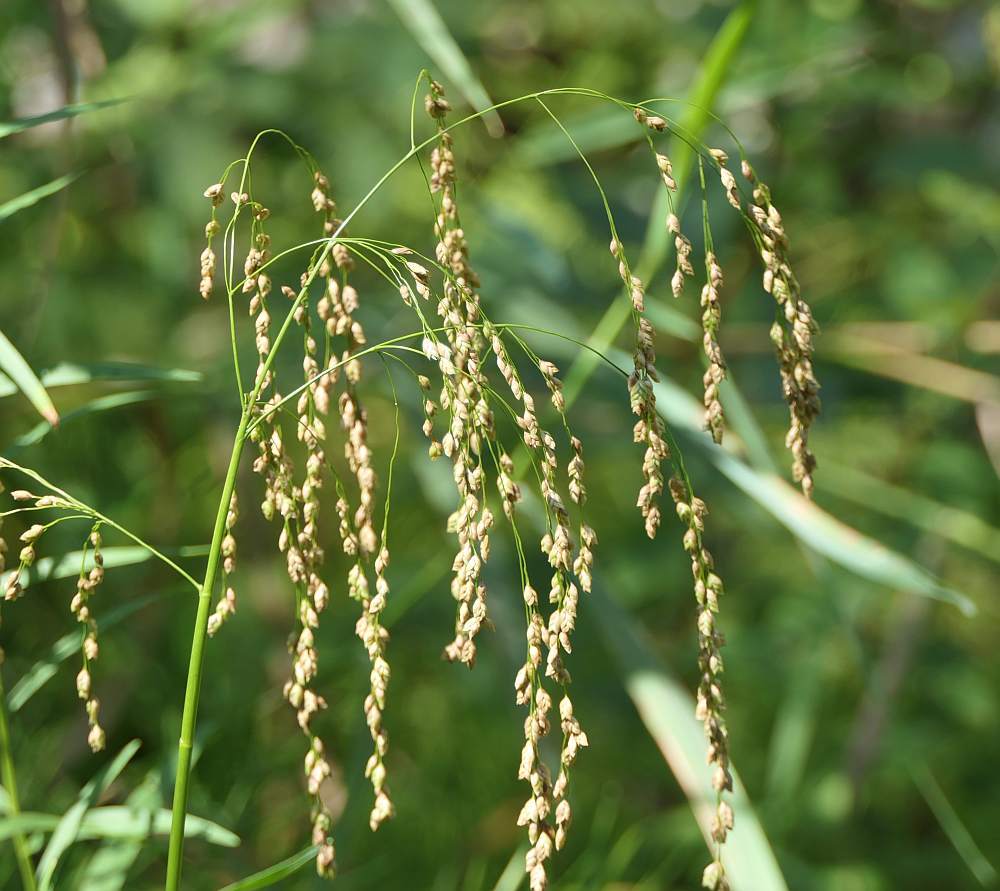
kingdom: Plantae
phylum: Tracheophyta
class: Liliopsida
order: Poales
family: Poaceae
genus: Glyceria
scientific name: Glyceria canadensis
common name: Canada mannagrass
